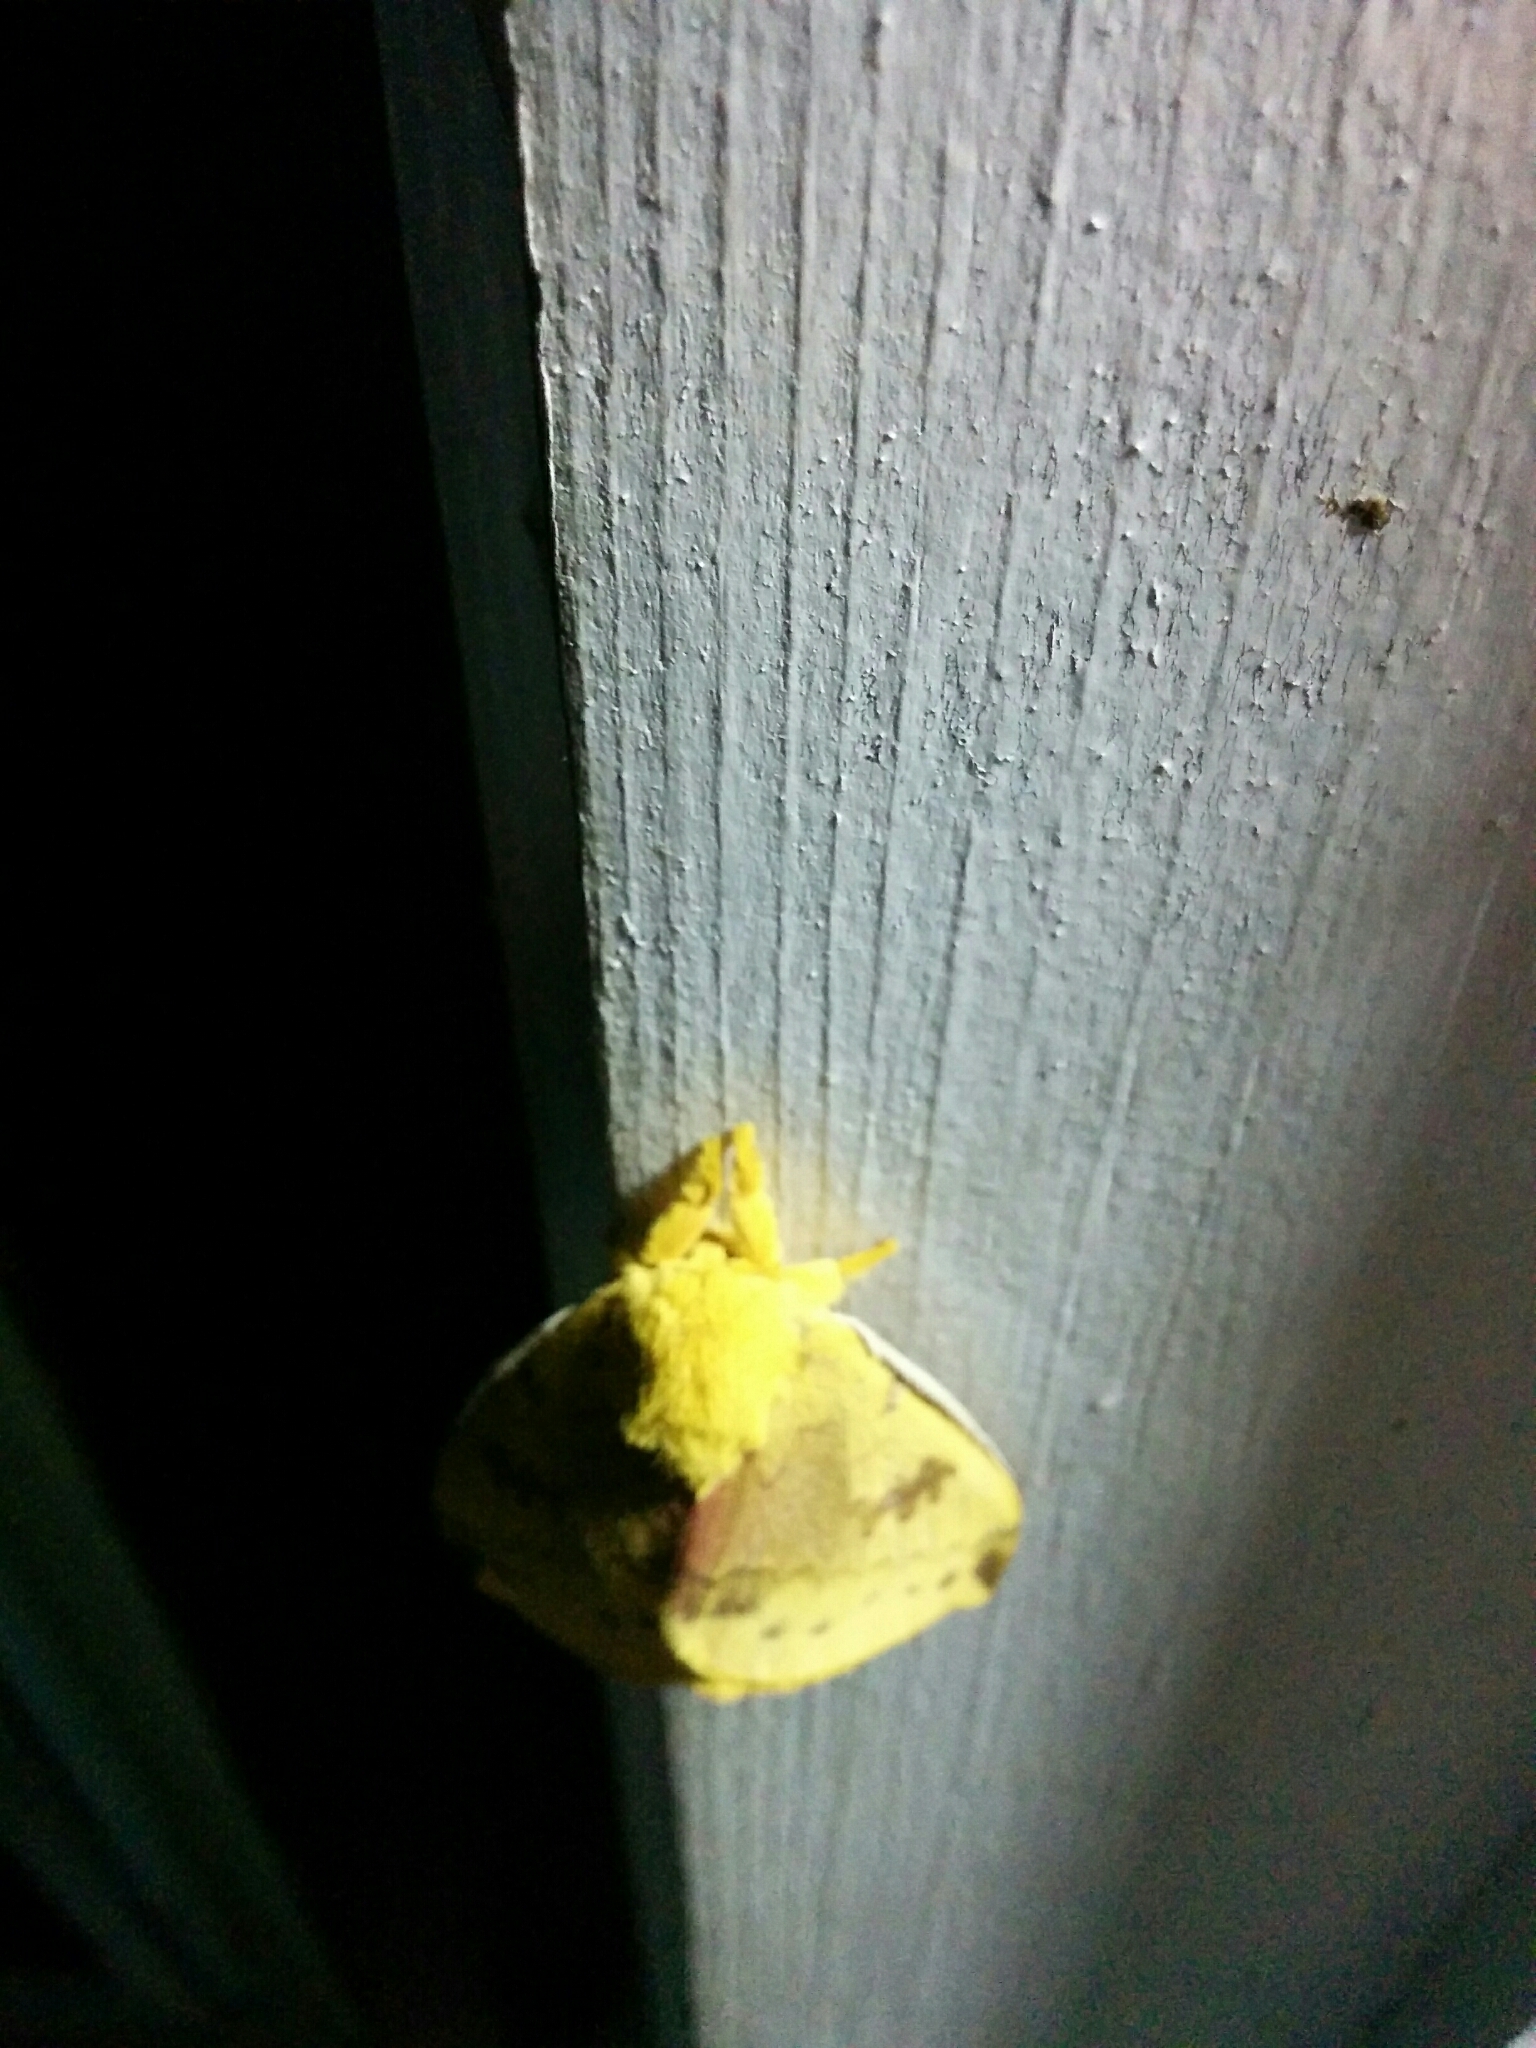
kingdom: Animalia
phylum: Arthropoda
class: Insecta
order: Lepidoptera
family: Saturniidae
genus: Automeris
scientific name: Automeris io
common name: Io moth
